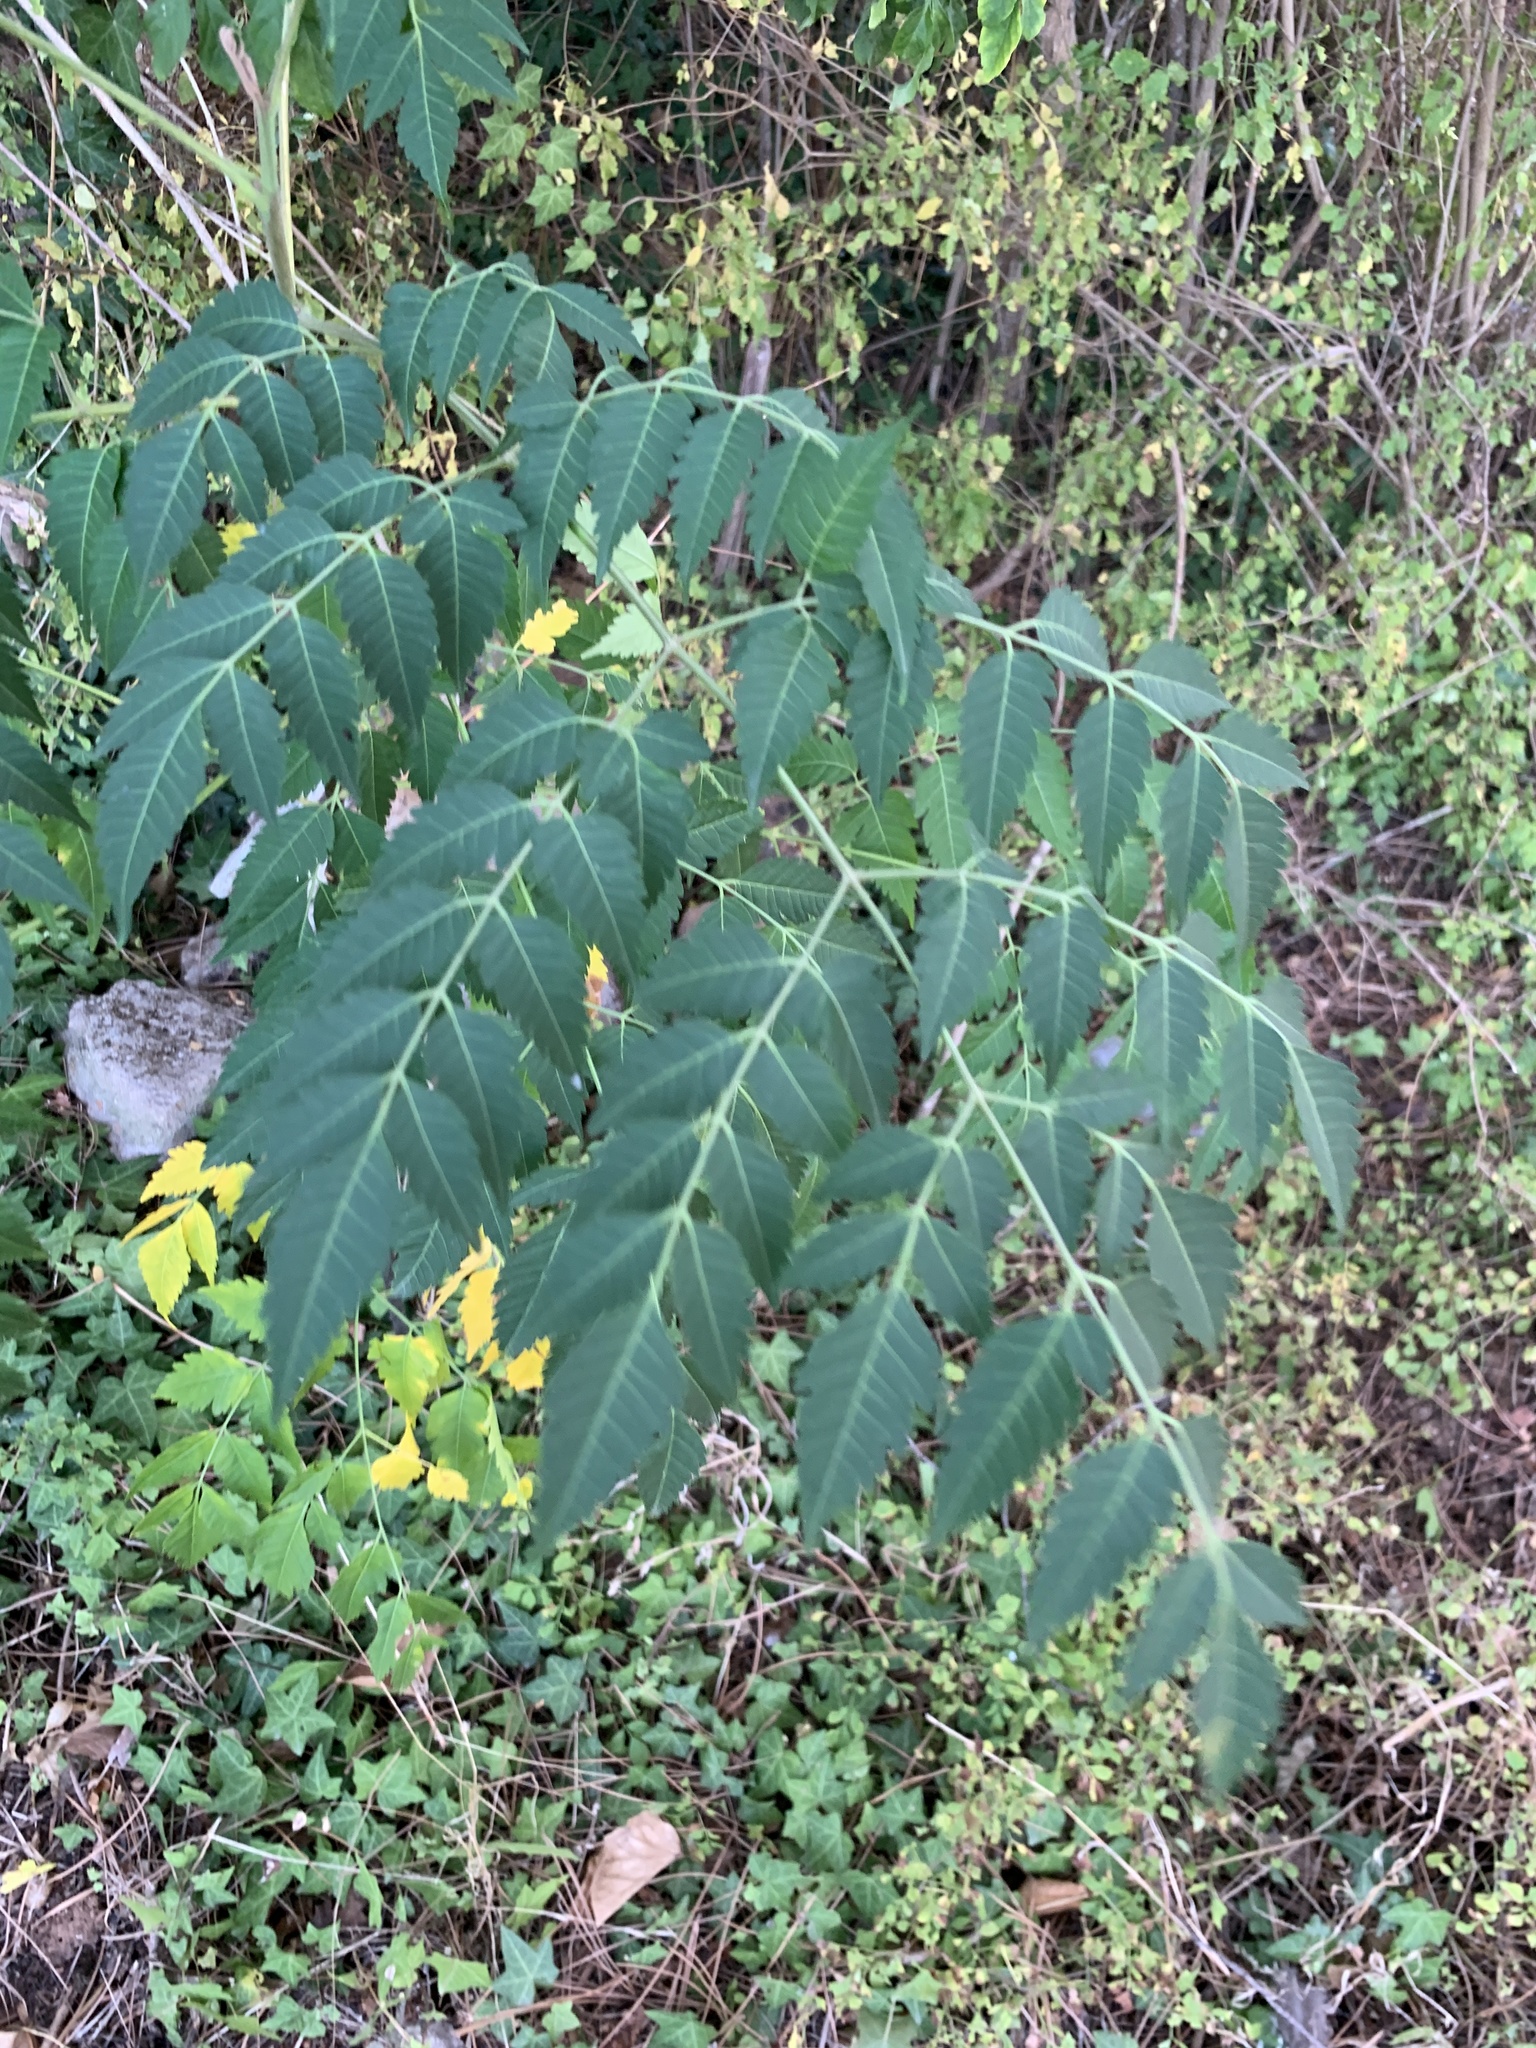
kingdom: Plantae
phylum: Tracheophyta
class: Magnoliopsida
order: Sapindales
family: Meliaceae
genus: Melia
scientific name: Melia azedarach
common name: Chinaberrytree
